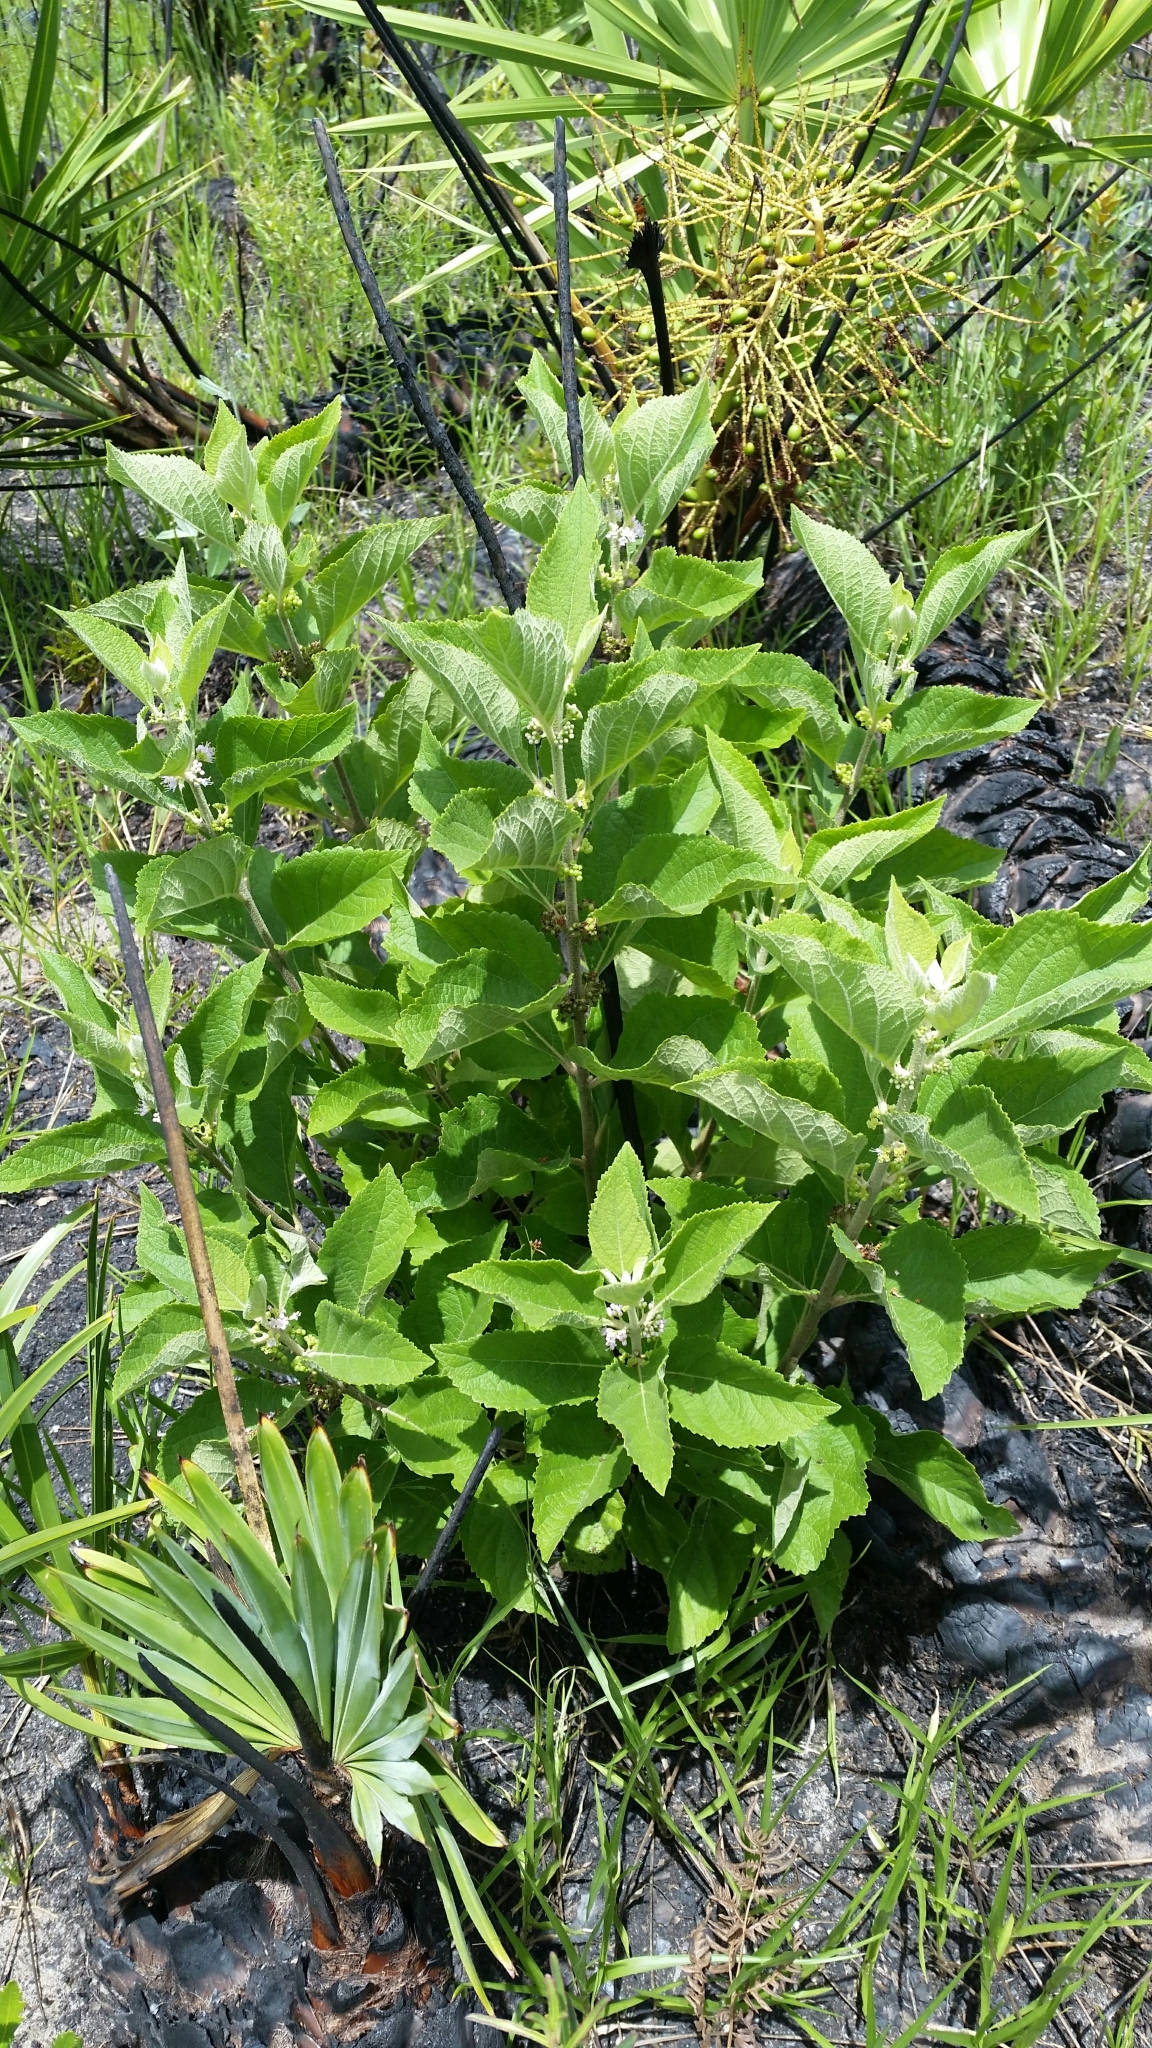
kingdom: Plantae
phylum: Tracheophyta
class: Magnoliopsida
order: Lamiales
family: Lamiaceae
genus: Callicarpa
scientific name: Callicarpa americana
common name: American beautyberry
